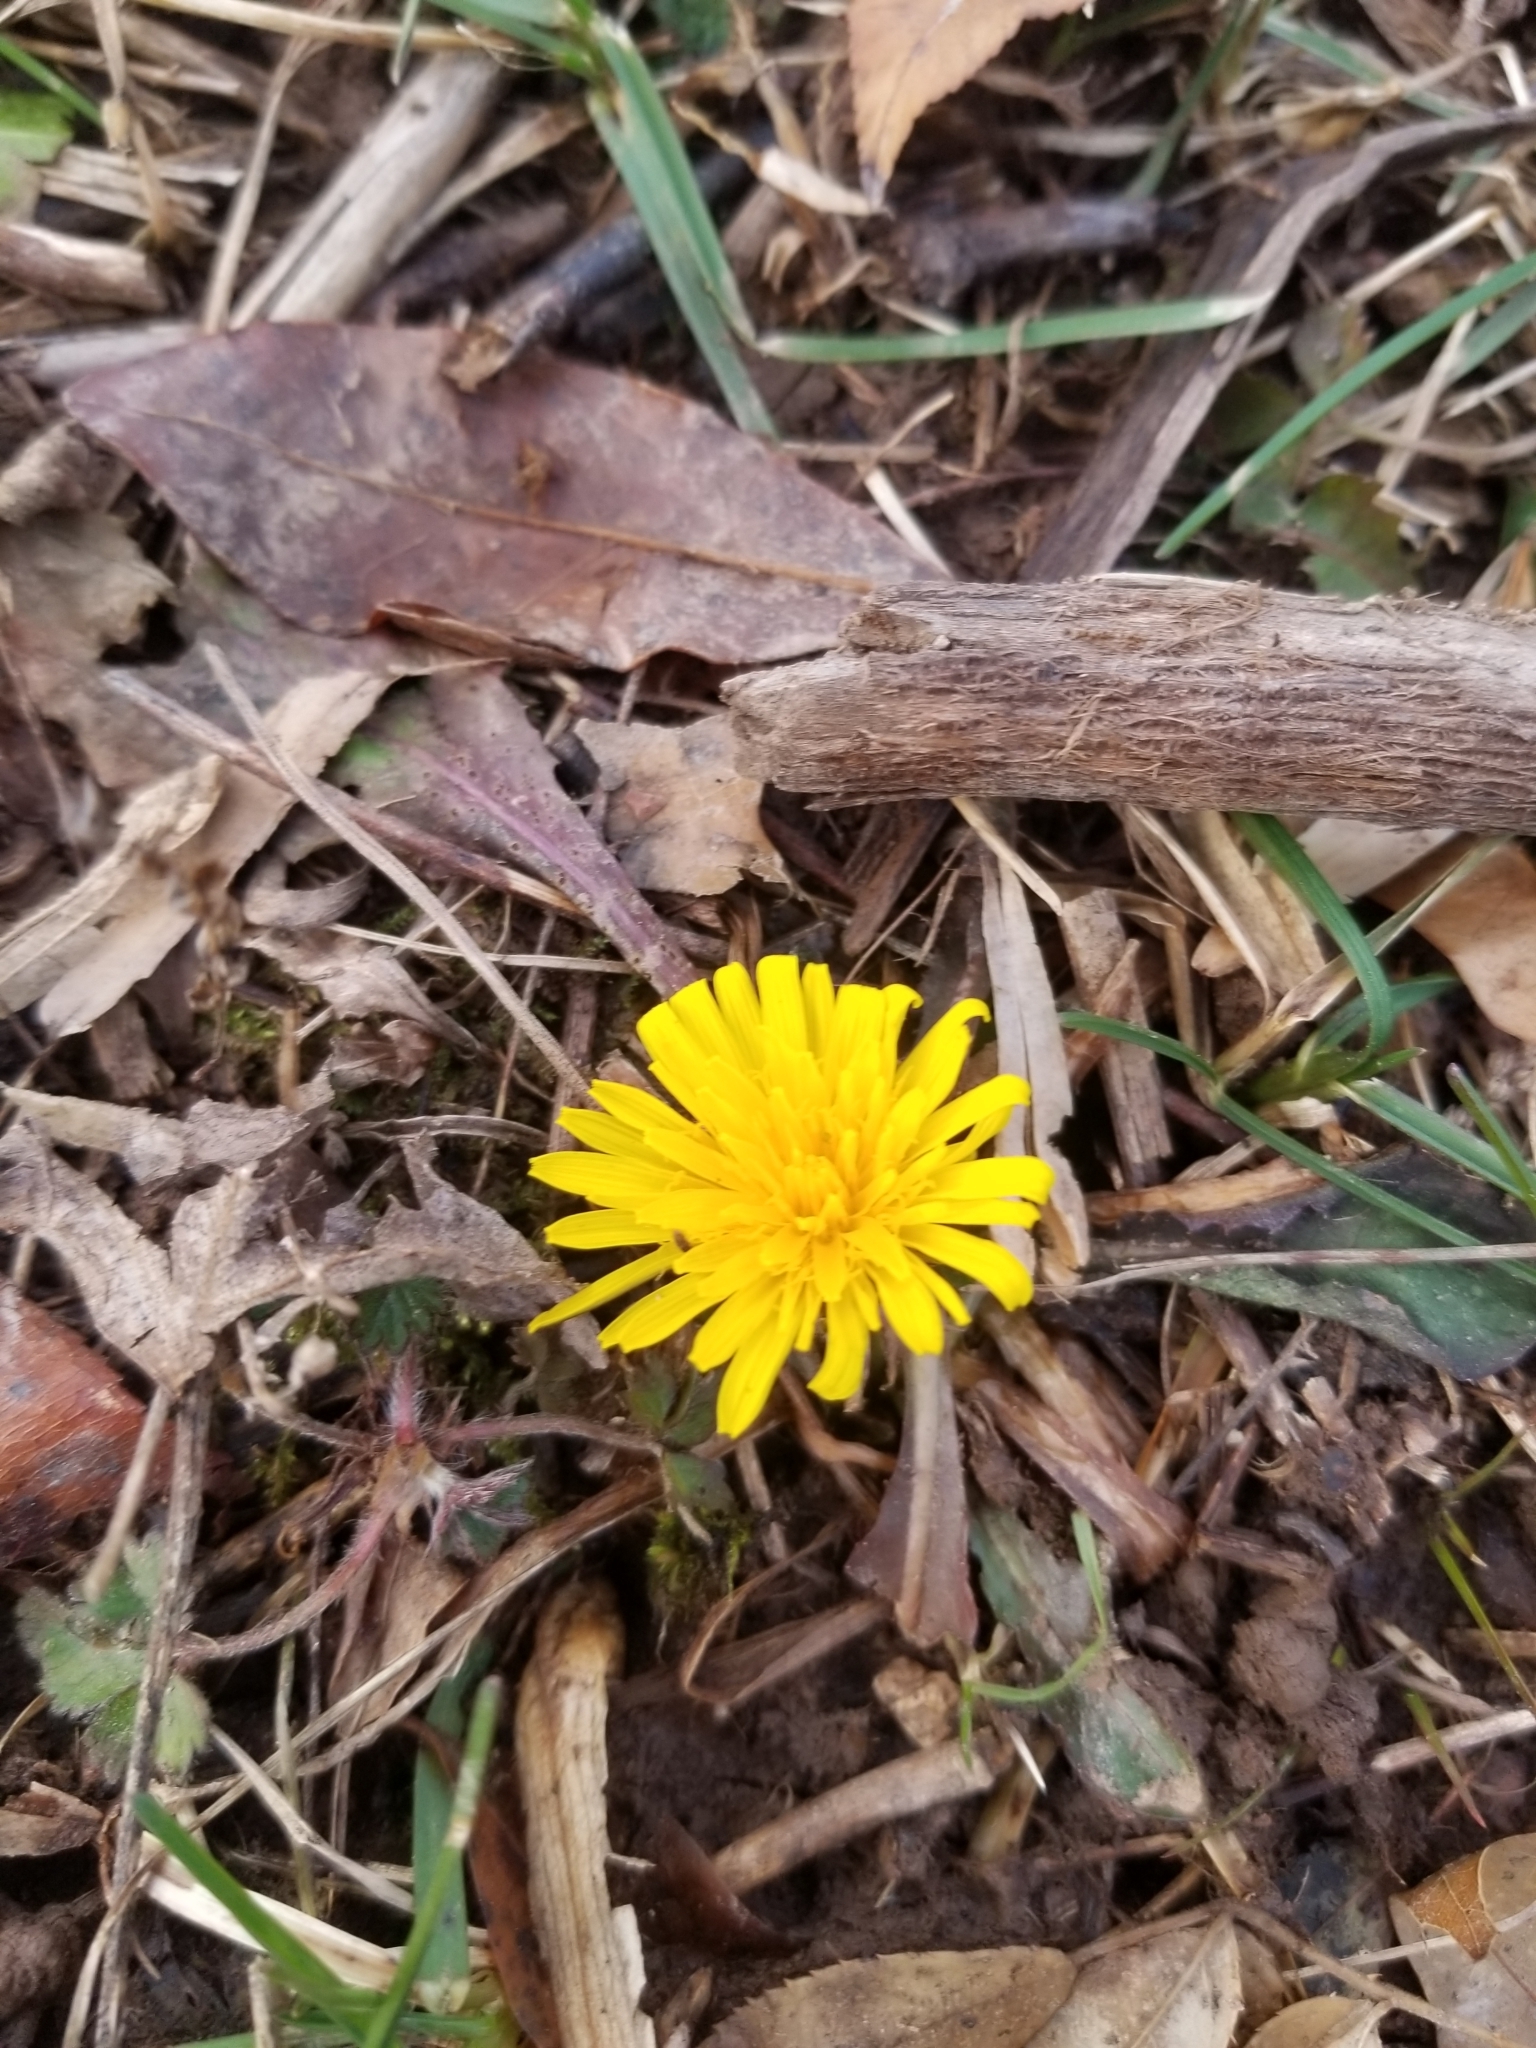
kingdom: Plantae
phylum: Tracheophyta
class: Magnoliopsida
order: Asterales
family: Asteraceae
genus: Taraxacum
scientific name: Taraxacum officinale
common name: Common dandelion
